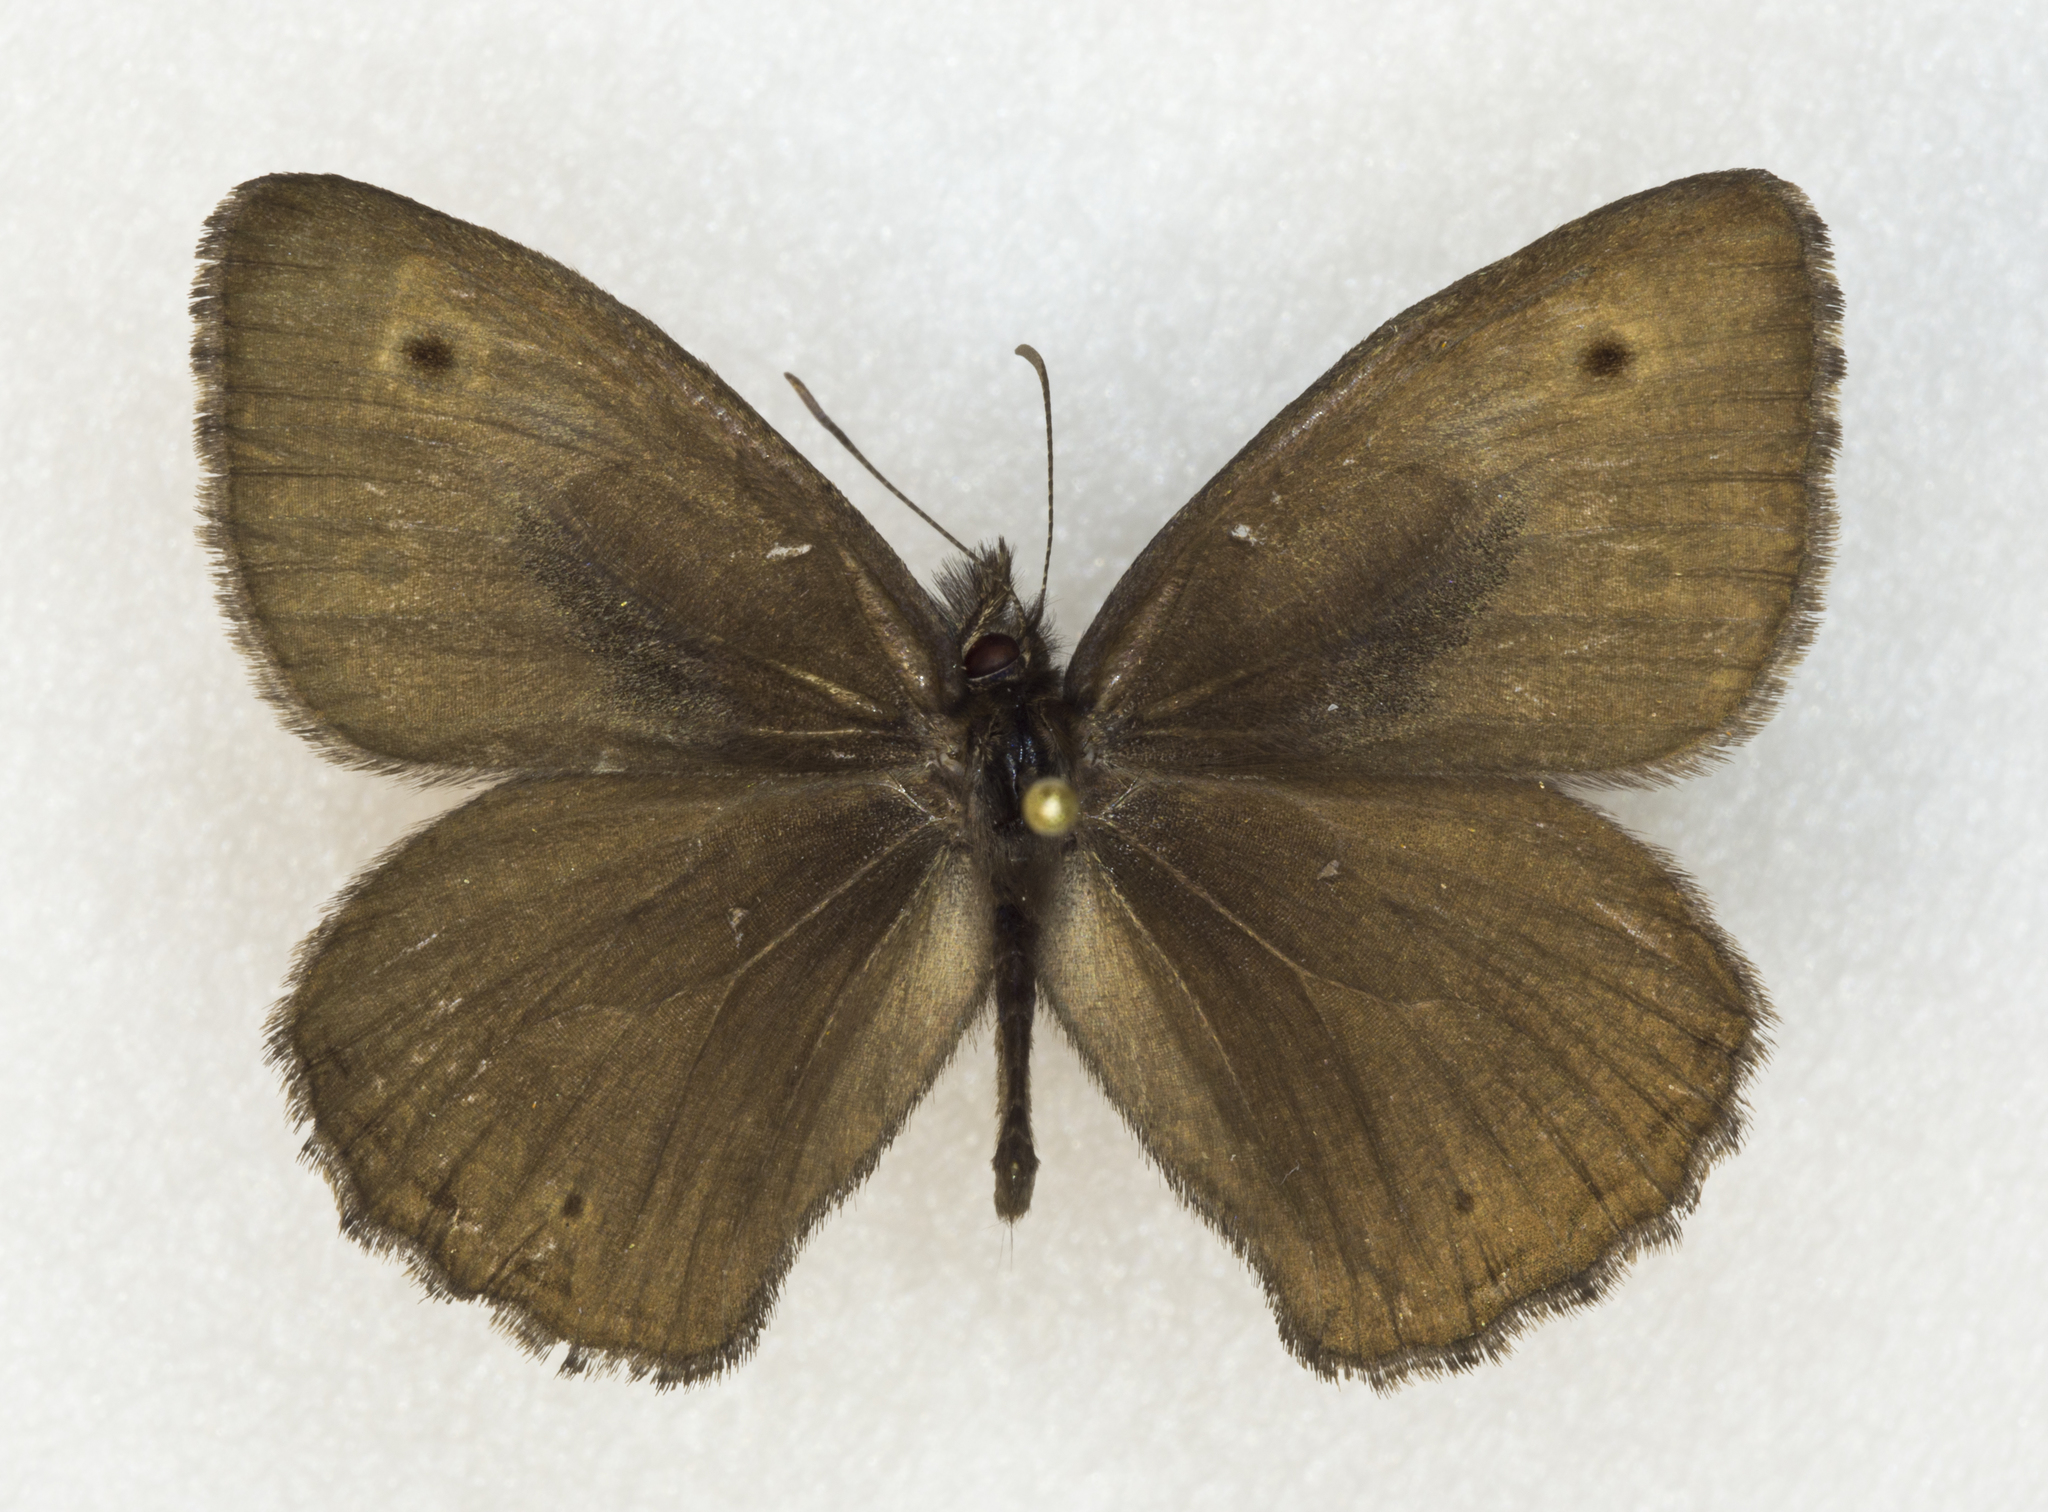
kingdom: Animalia
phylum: Arthropoda
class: Insecta
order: Lepidoptera
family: Nymphalidae
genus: Cercyonis
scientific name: Cercyonis oetus
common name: Small wood-nymph
